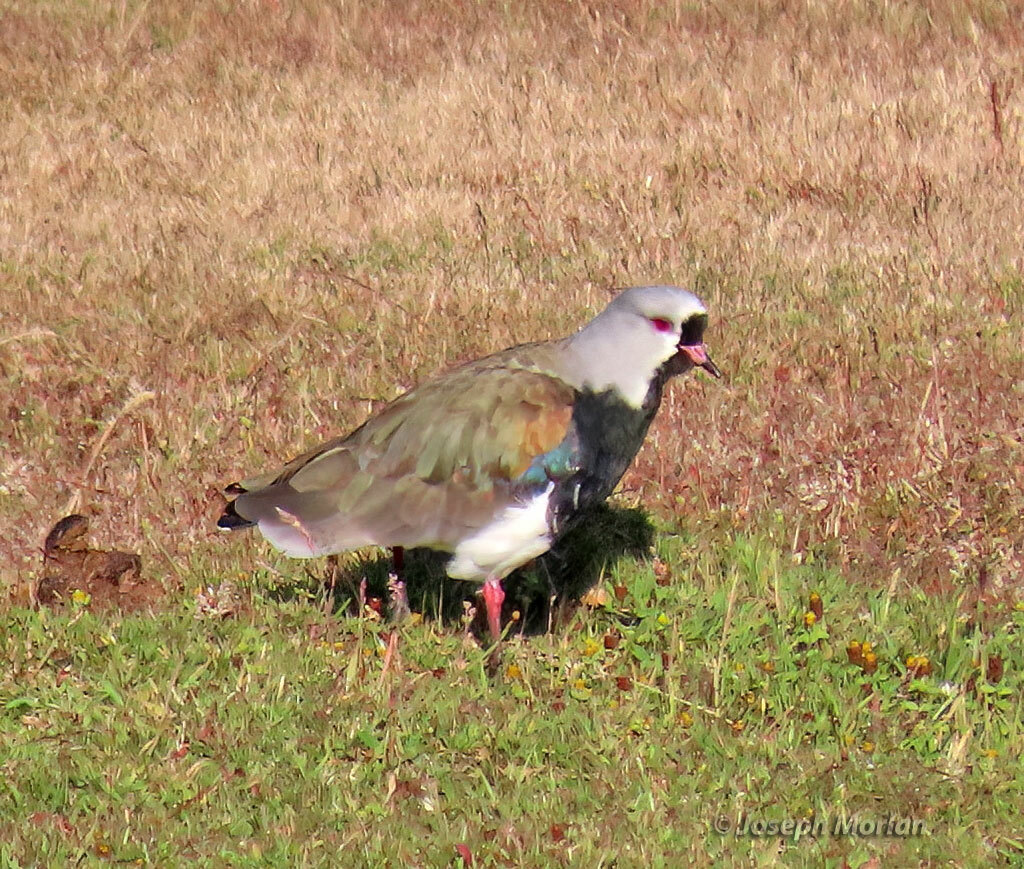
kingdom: Animalia
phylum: Chordata
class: Aves
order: Charadriiformes
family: Charadriidae
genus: Vanellus
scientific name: Vanellus chilensis
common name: Southern lapwing
